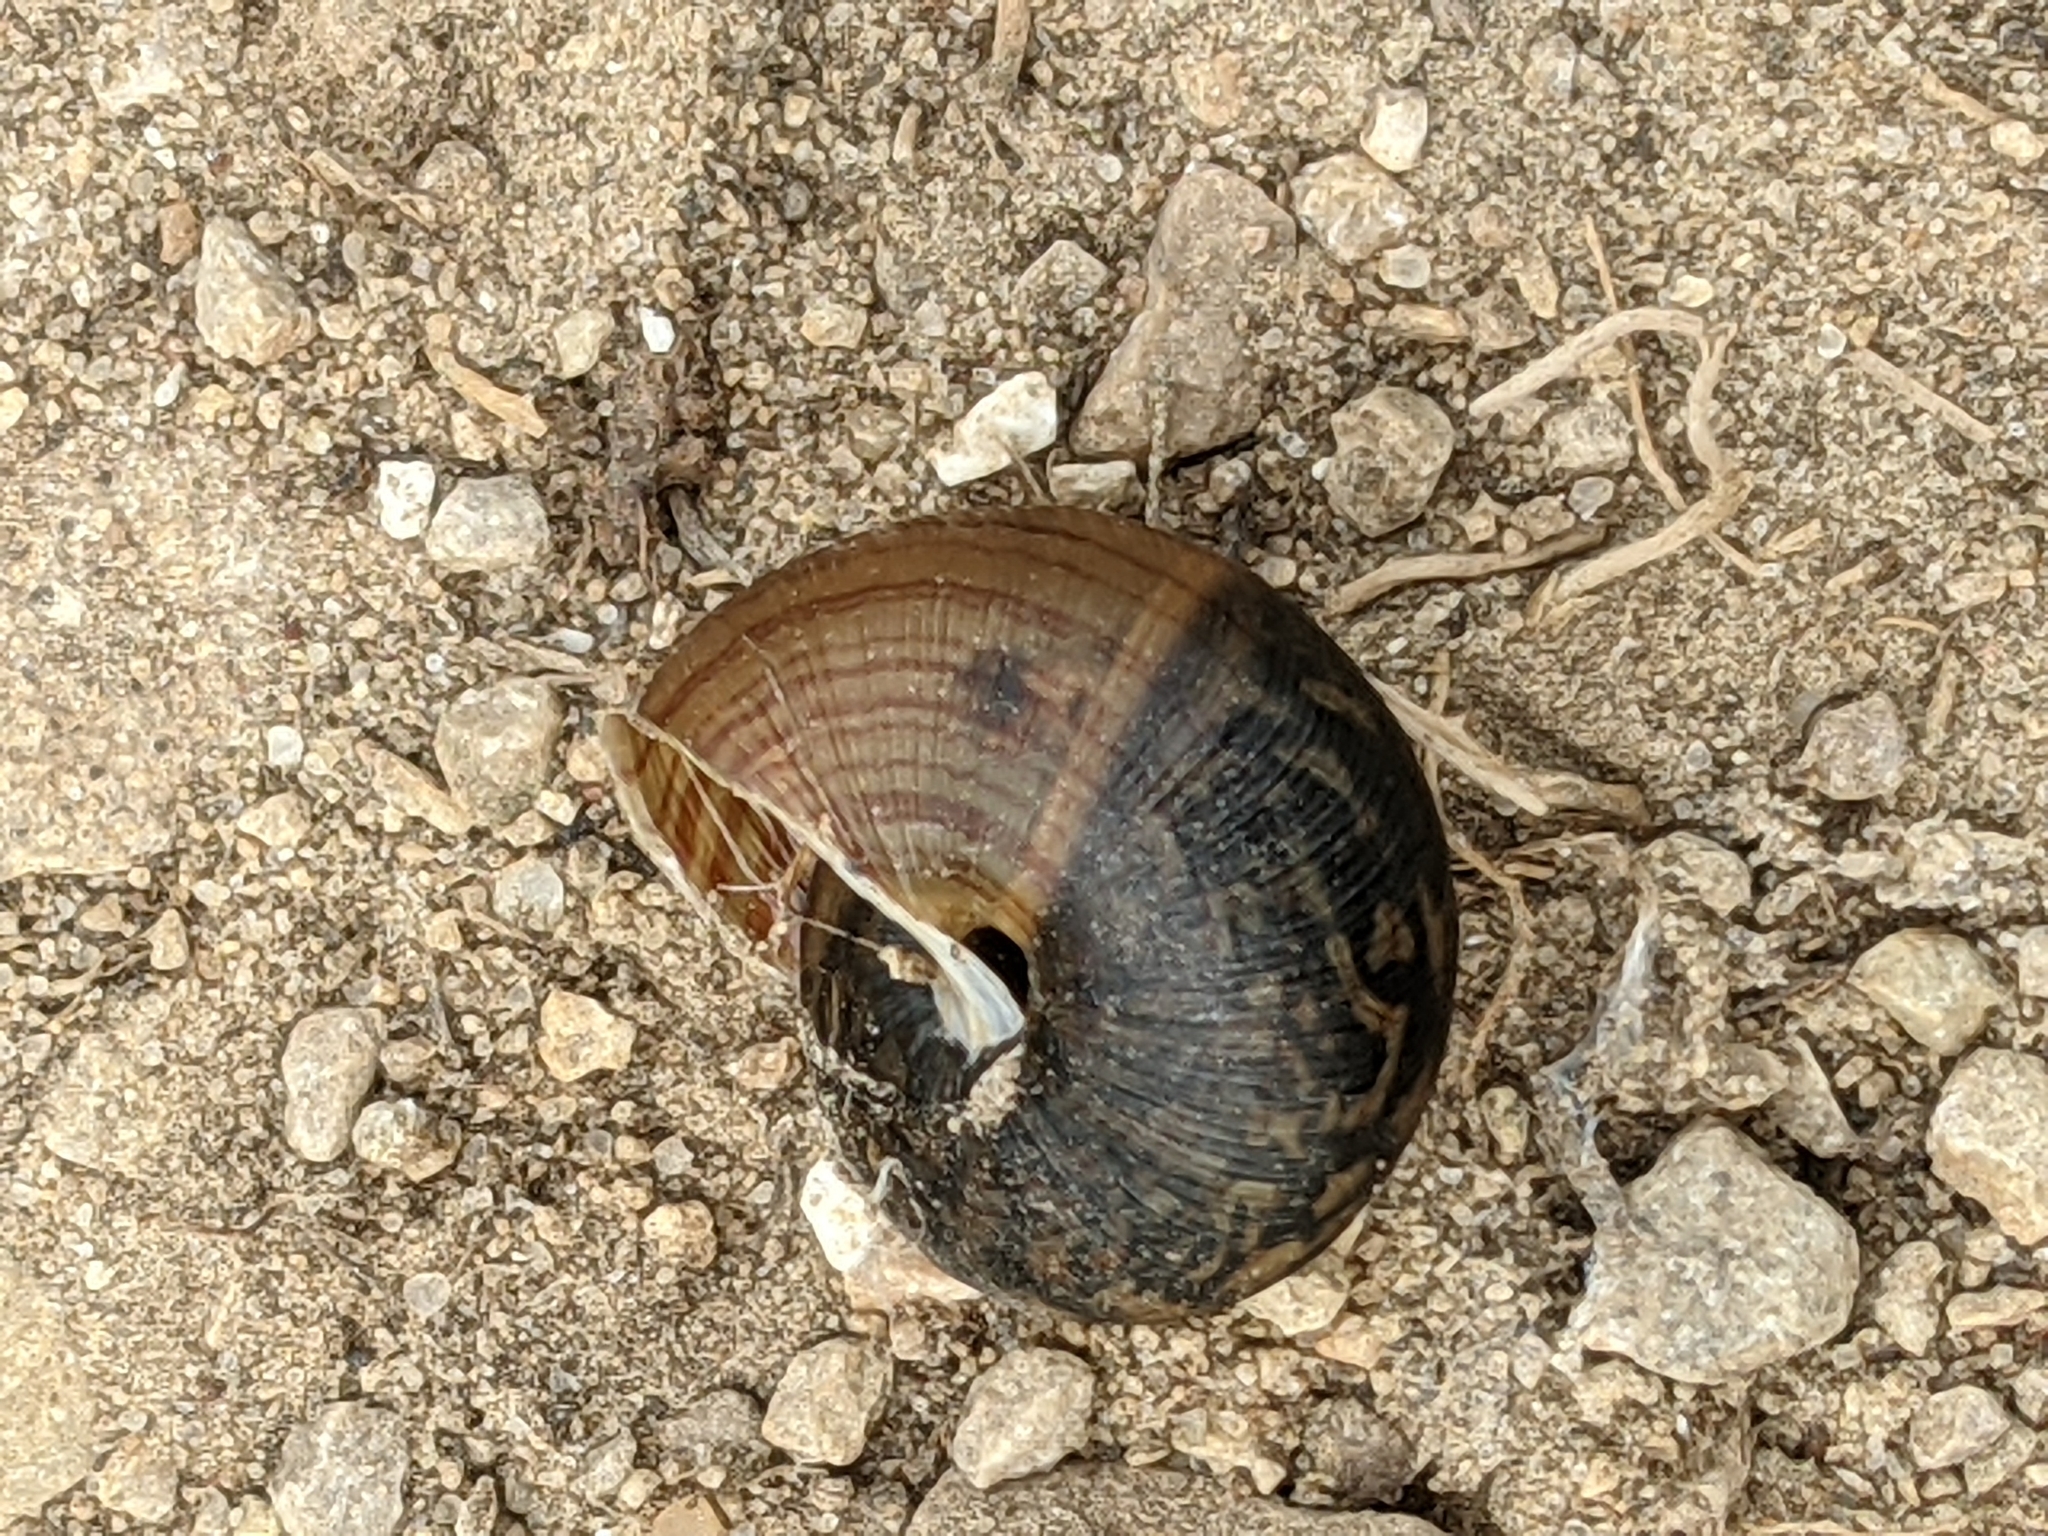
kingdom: Animalia
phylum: Mollusca
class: Gastropoda
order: Stylommatophora
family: Polygyridae
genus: Webbhelix
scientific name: Webbhelix multilineata
